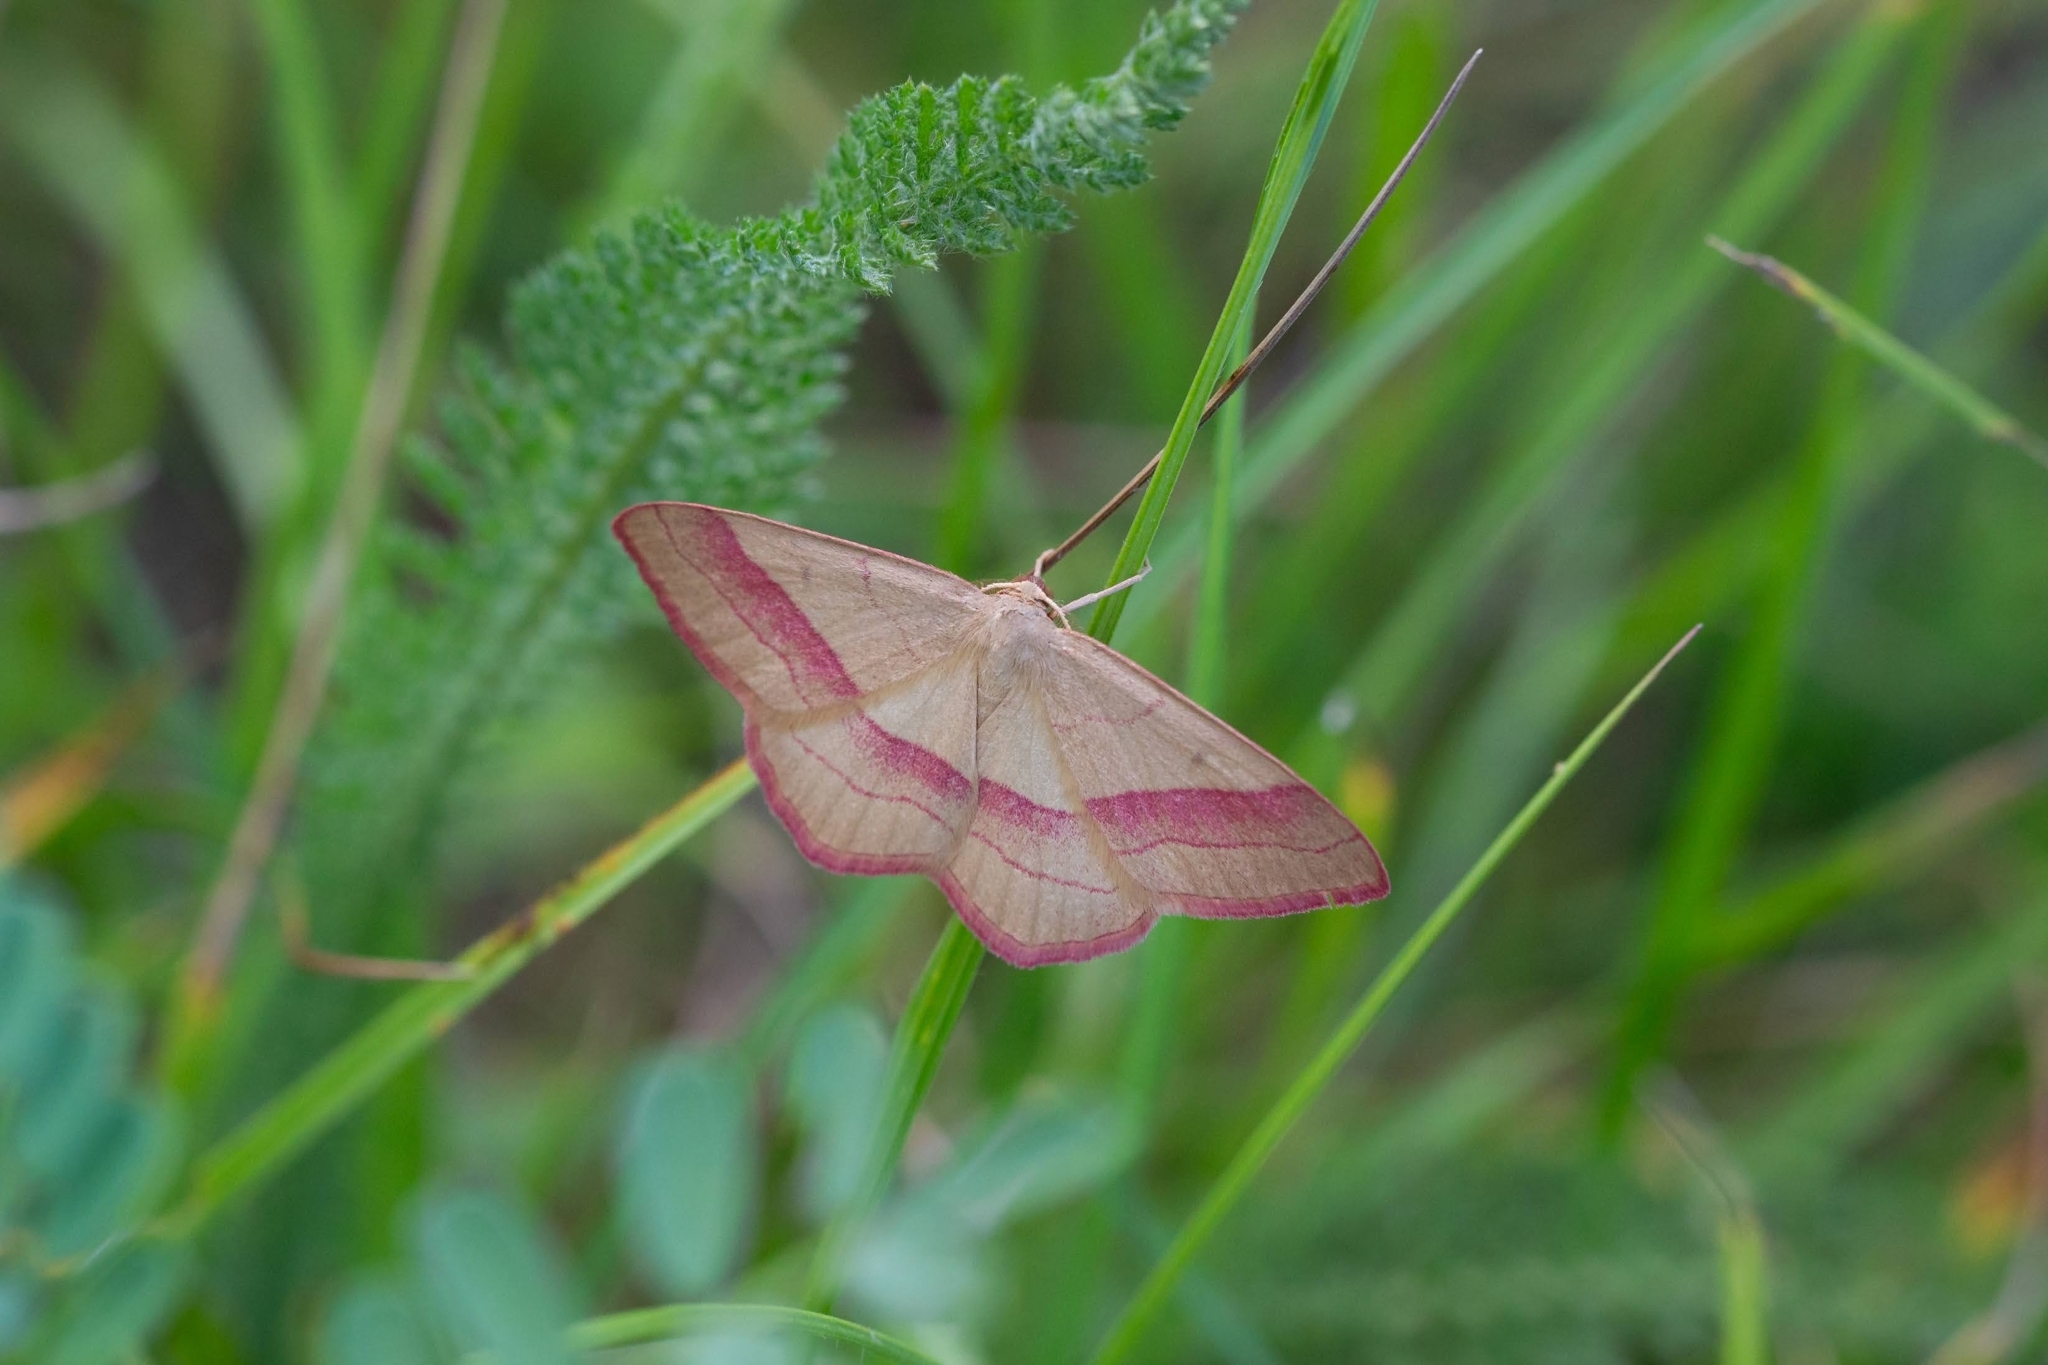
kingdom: Animalia
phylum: Arthropoda
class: Insecta
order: Lepidoptera
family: Geometridae
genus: Rhodostrophia
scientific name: Rhodostrophia vibicaria
